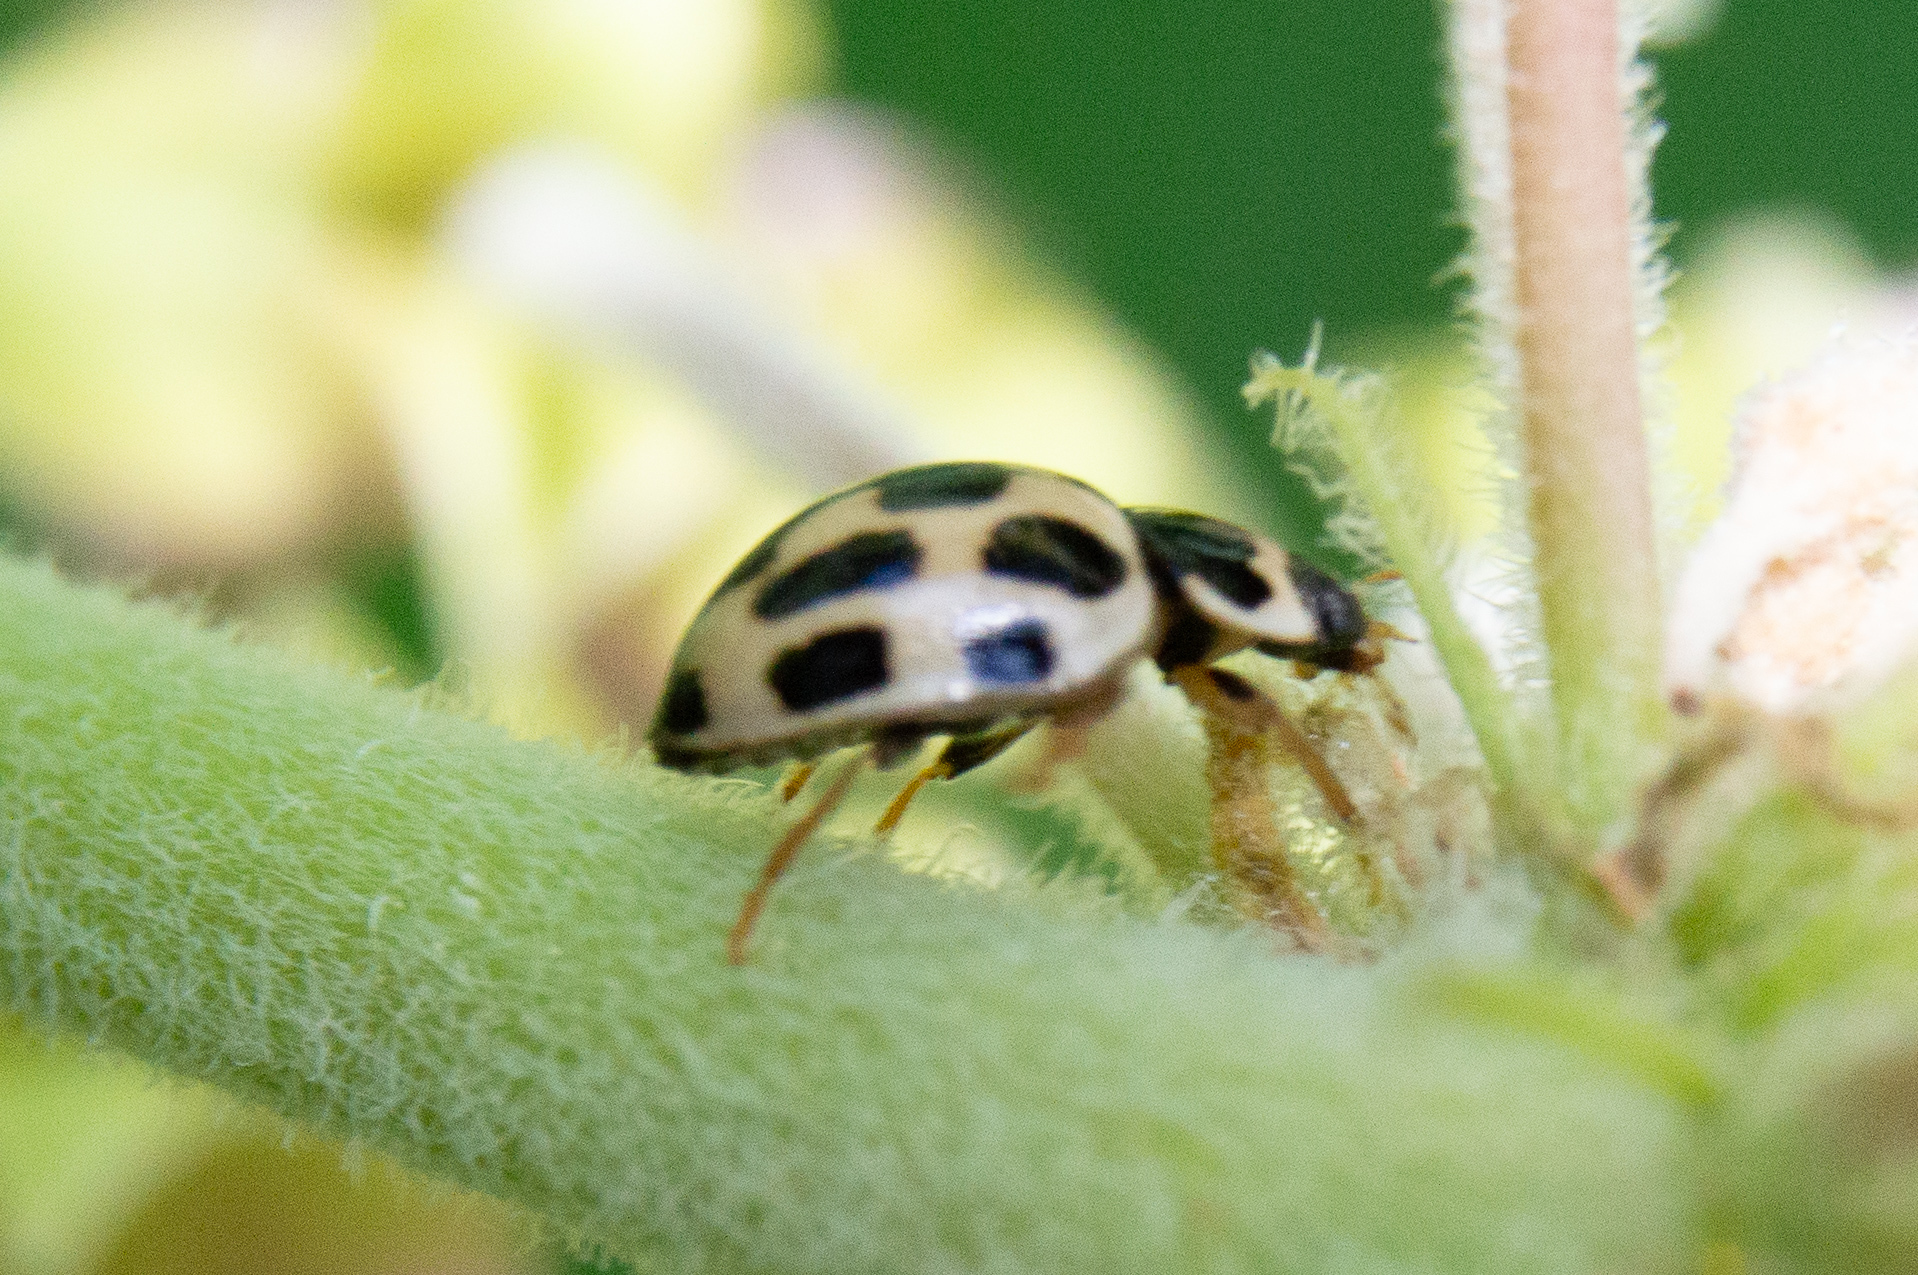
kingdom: Animalia
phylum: Arthropoda
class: Insecta
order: Coleoptera
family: Coccinellidae
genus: Propylaea
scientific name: Propylaea quatuordecimpunctata
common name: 14-spotted ladybird beetle
